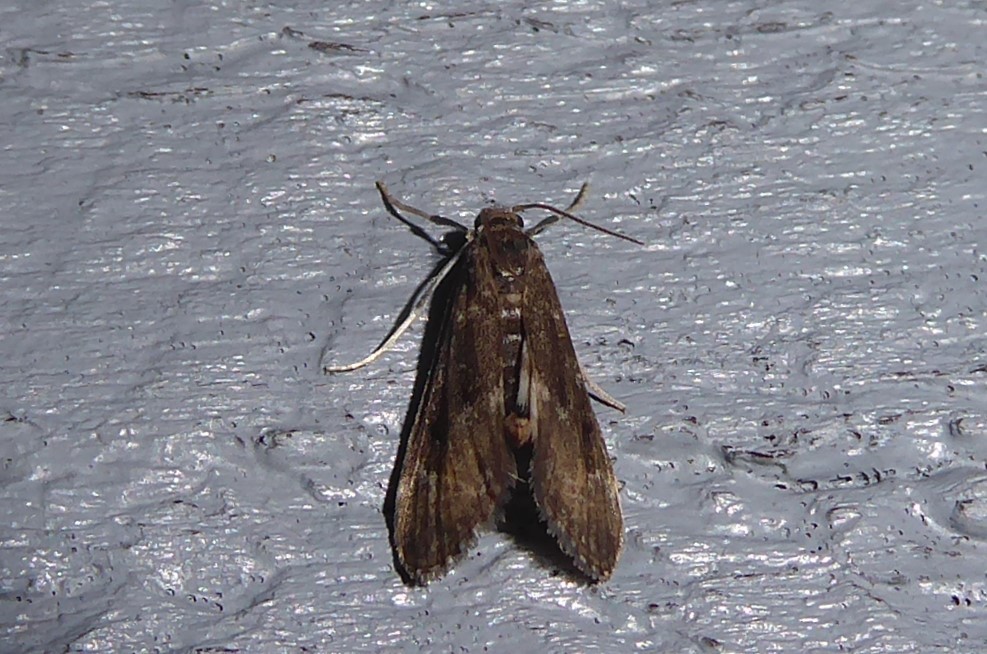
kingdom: Animalia
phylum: Arthropoda
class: Insecta
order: Lepidoptera
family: Crambidae
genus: Hygraula
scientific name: Hygraula nitens
